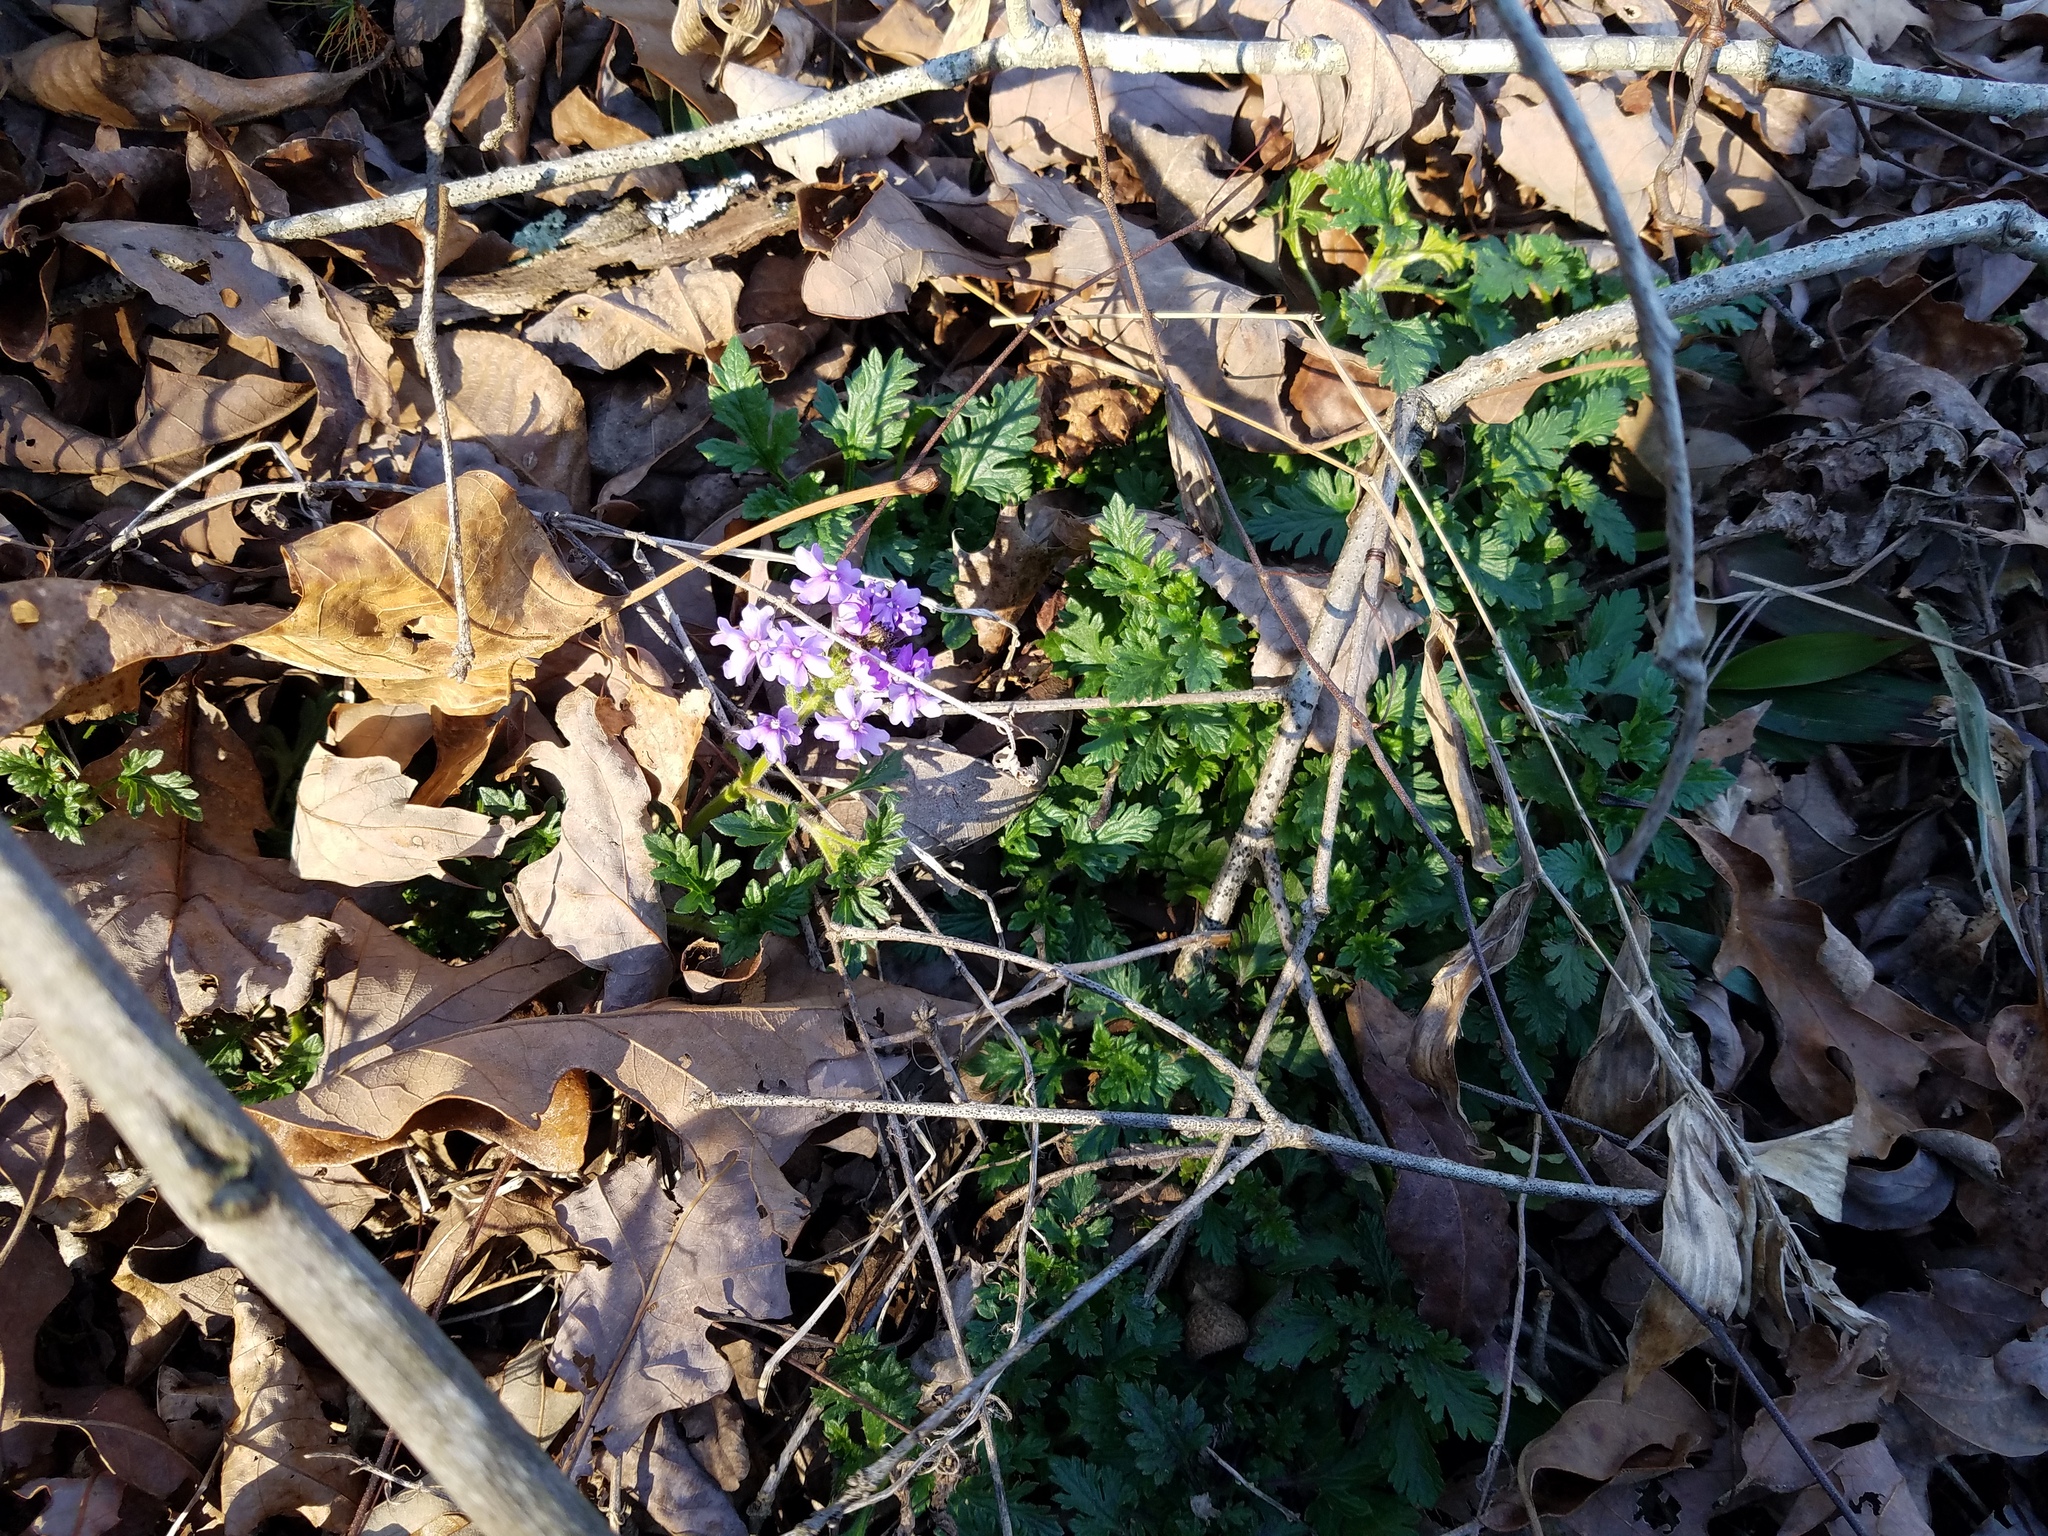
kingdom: Plantae
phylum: Tracheophyta
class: Magnoliopsida
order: Lamiales
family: Verbenaceae
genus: Verbena
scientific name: Verbena canadensis
